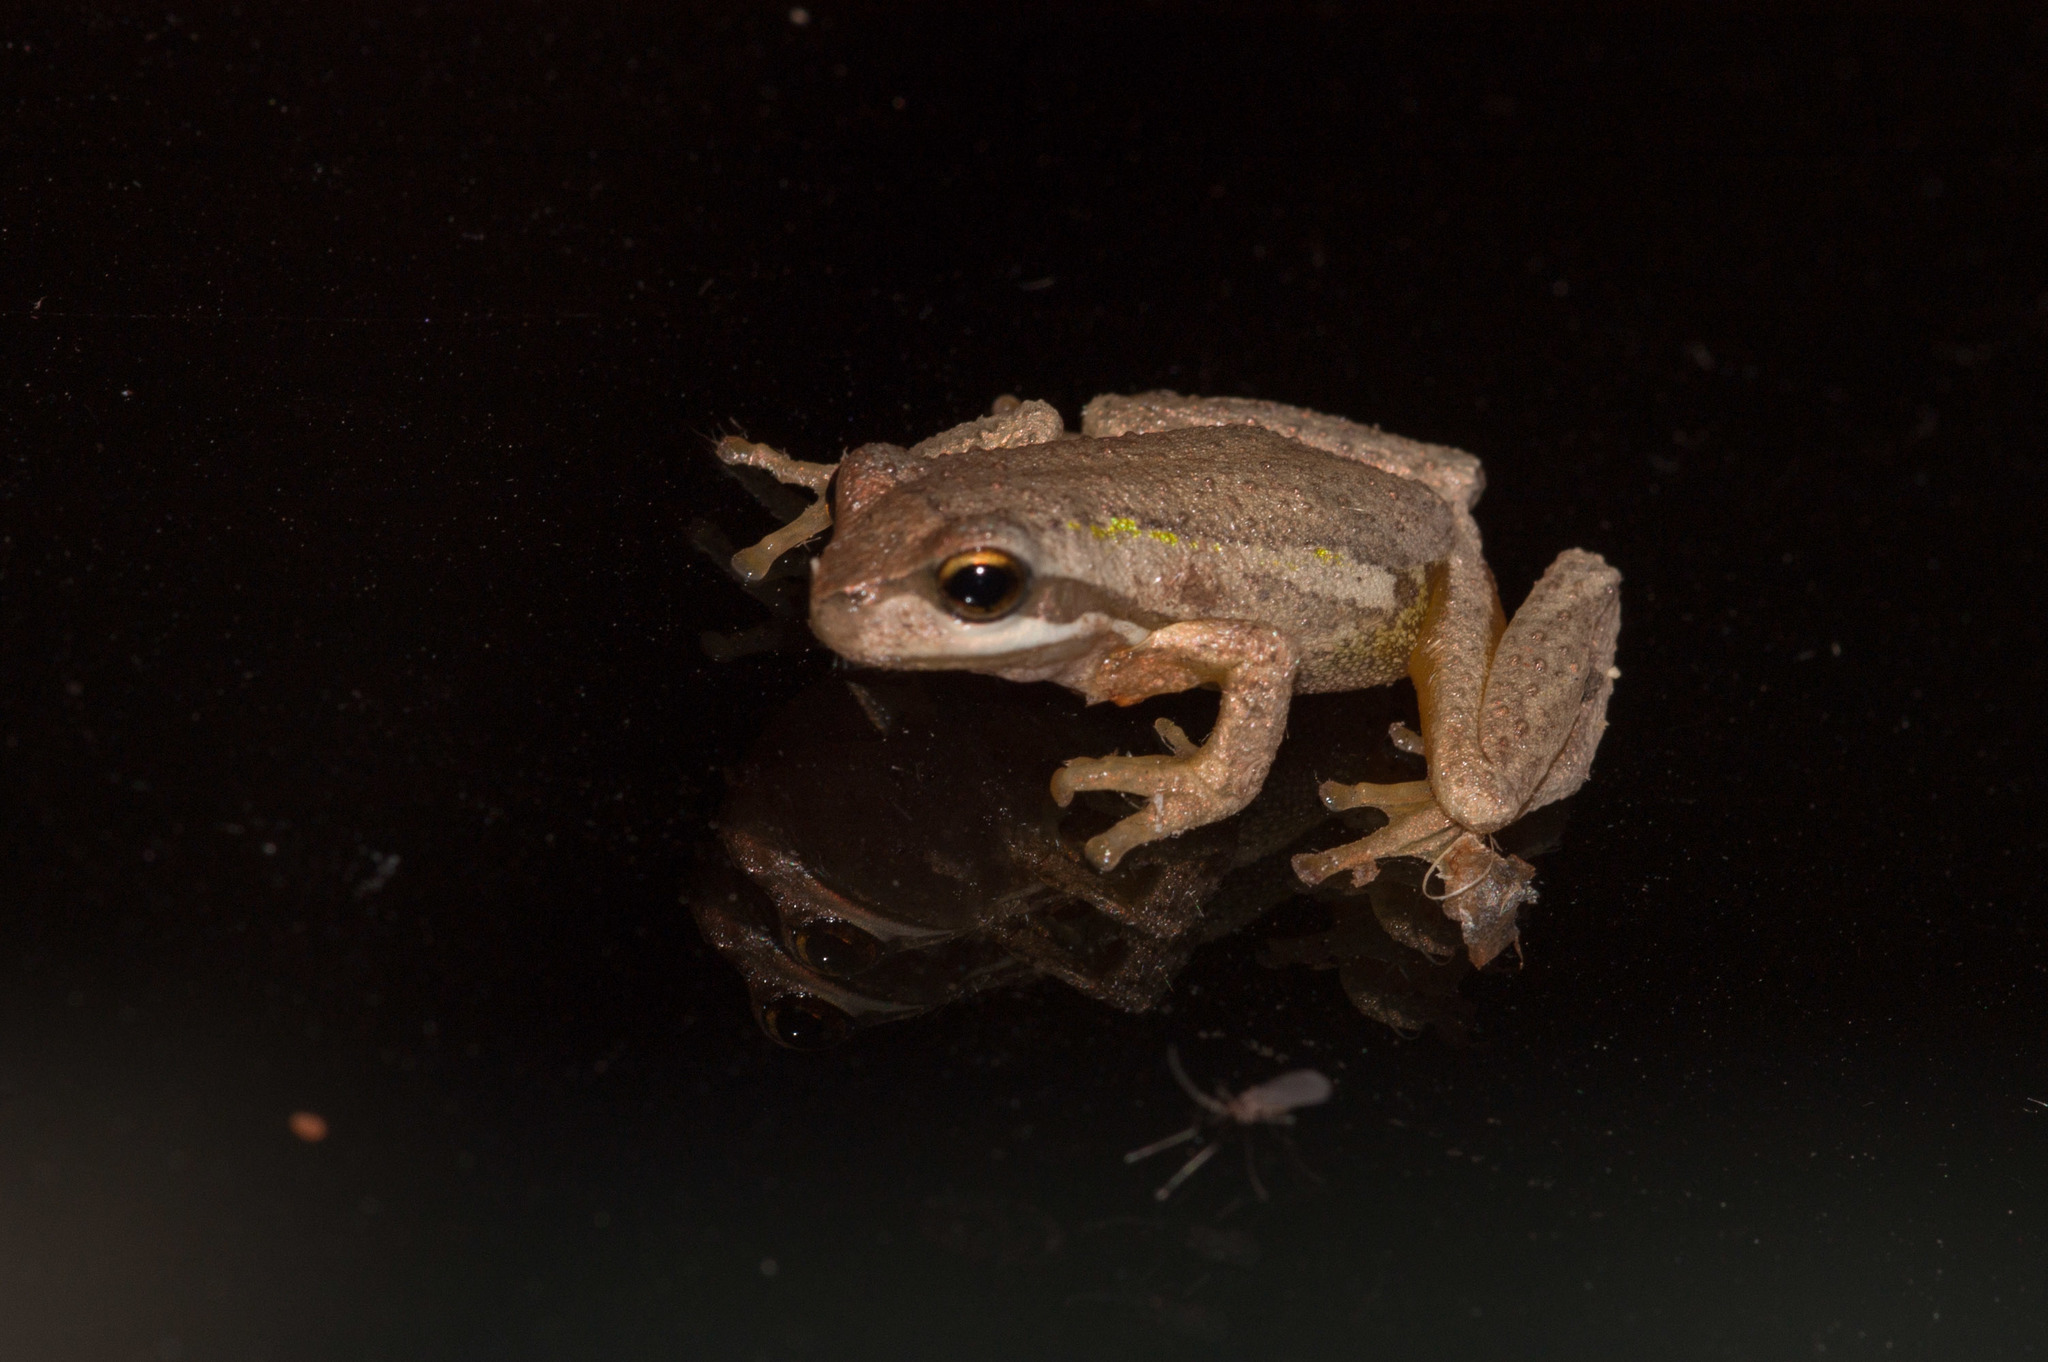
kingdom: Animalia
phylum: Chordata
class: Amphibia
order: Anura
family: Pelodryadidae
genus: Litoria
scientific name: Litoria ewingii
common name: Southern brown tree frog
